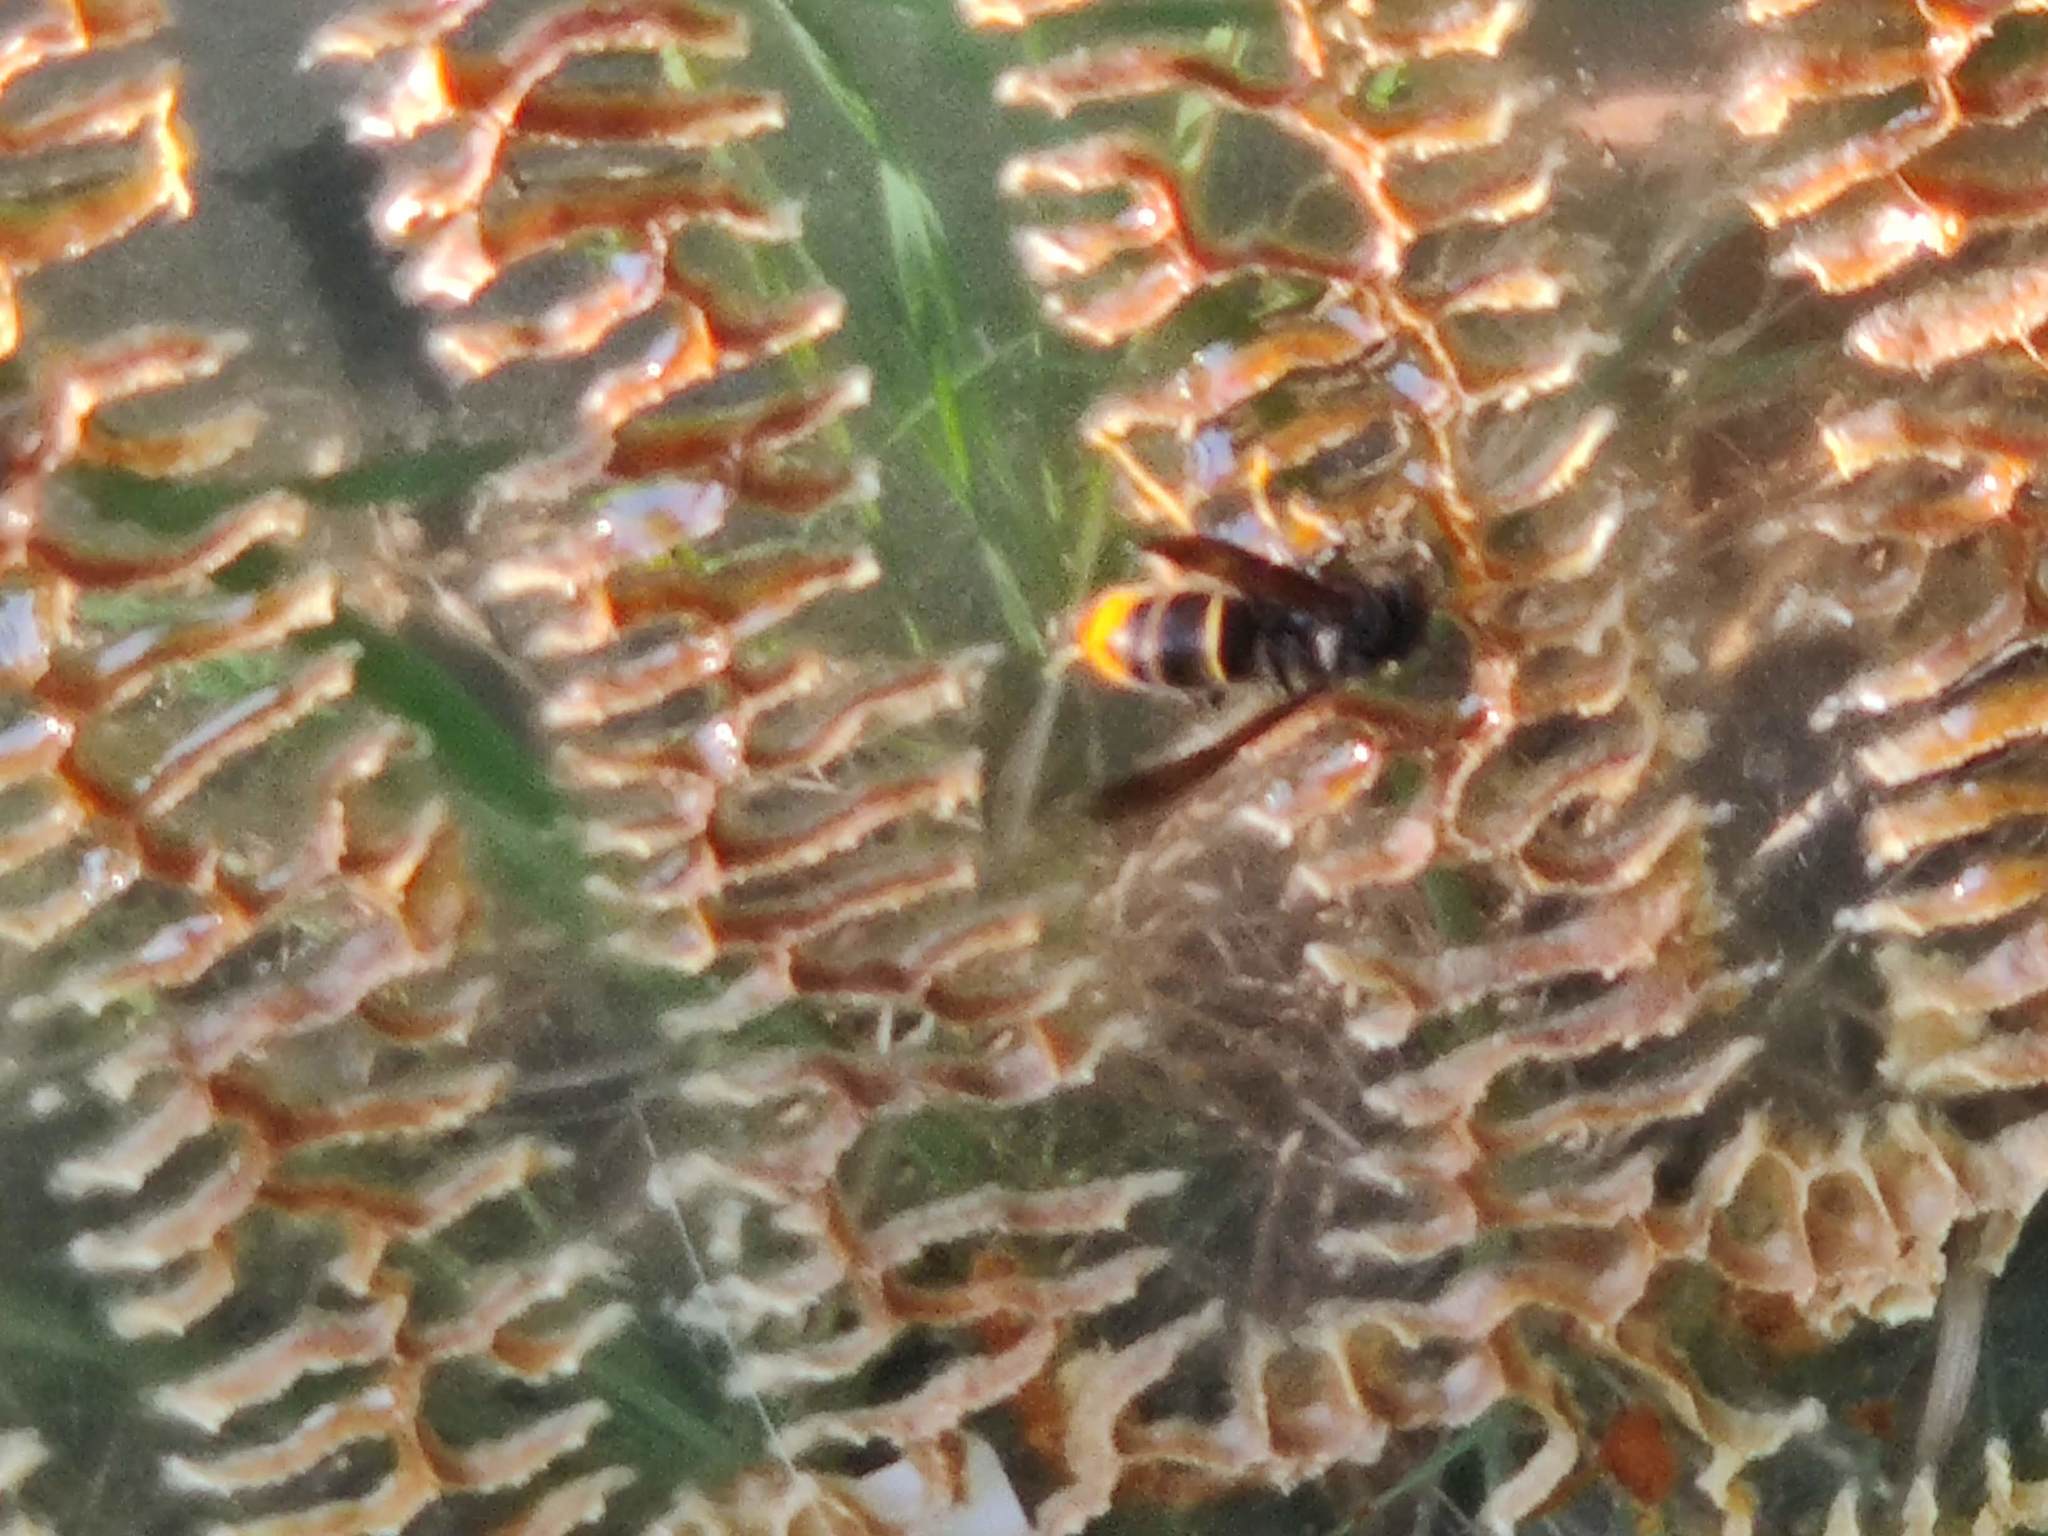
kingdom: Animalia
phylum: Arthropoda
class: Insecta
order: Hymenoptera
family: Vespidae
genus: Vespa
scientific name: Vespa velutina
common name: Asian hornet
